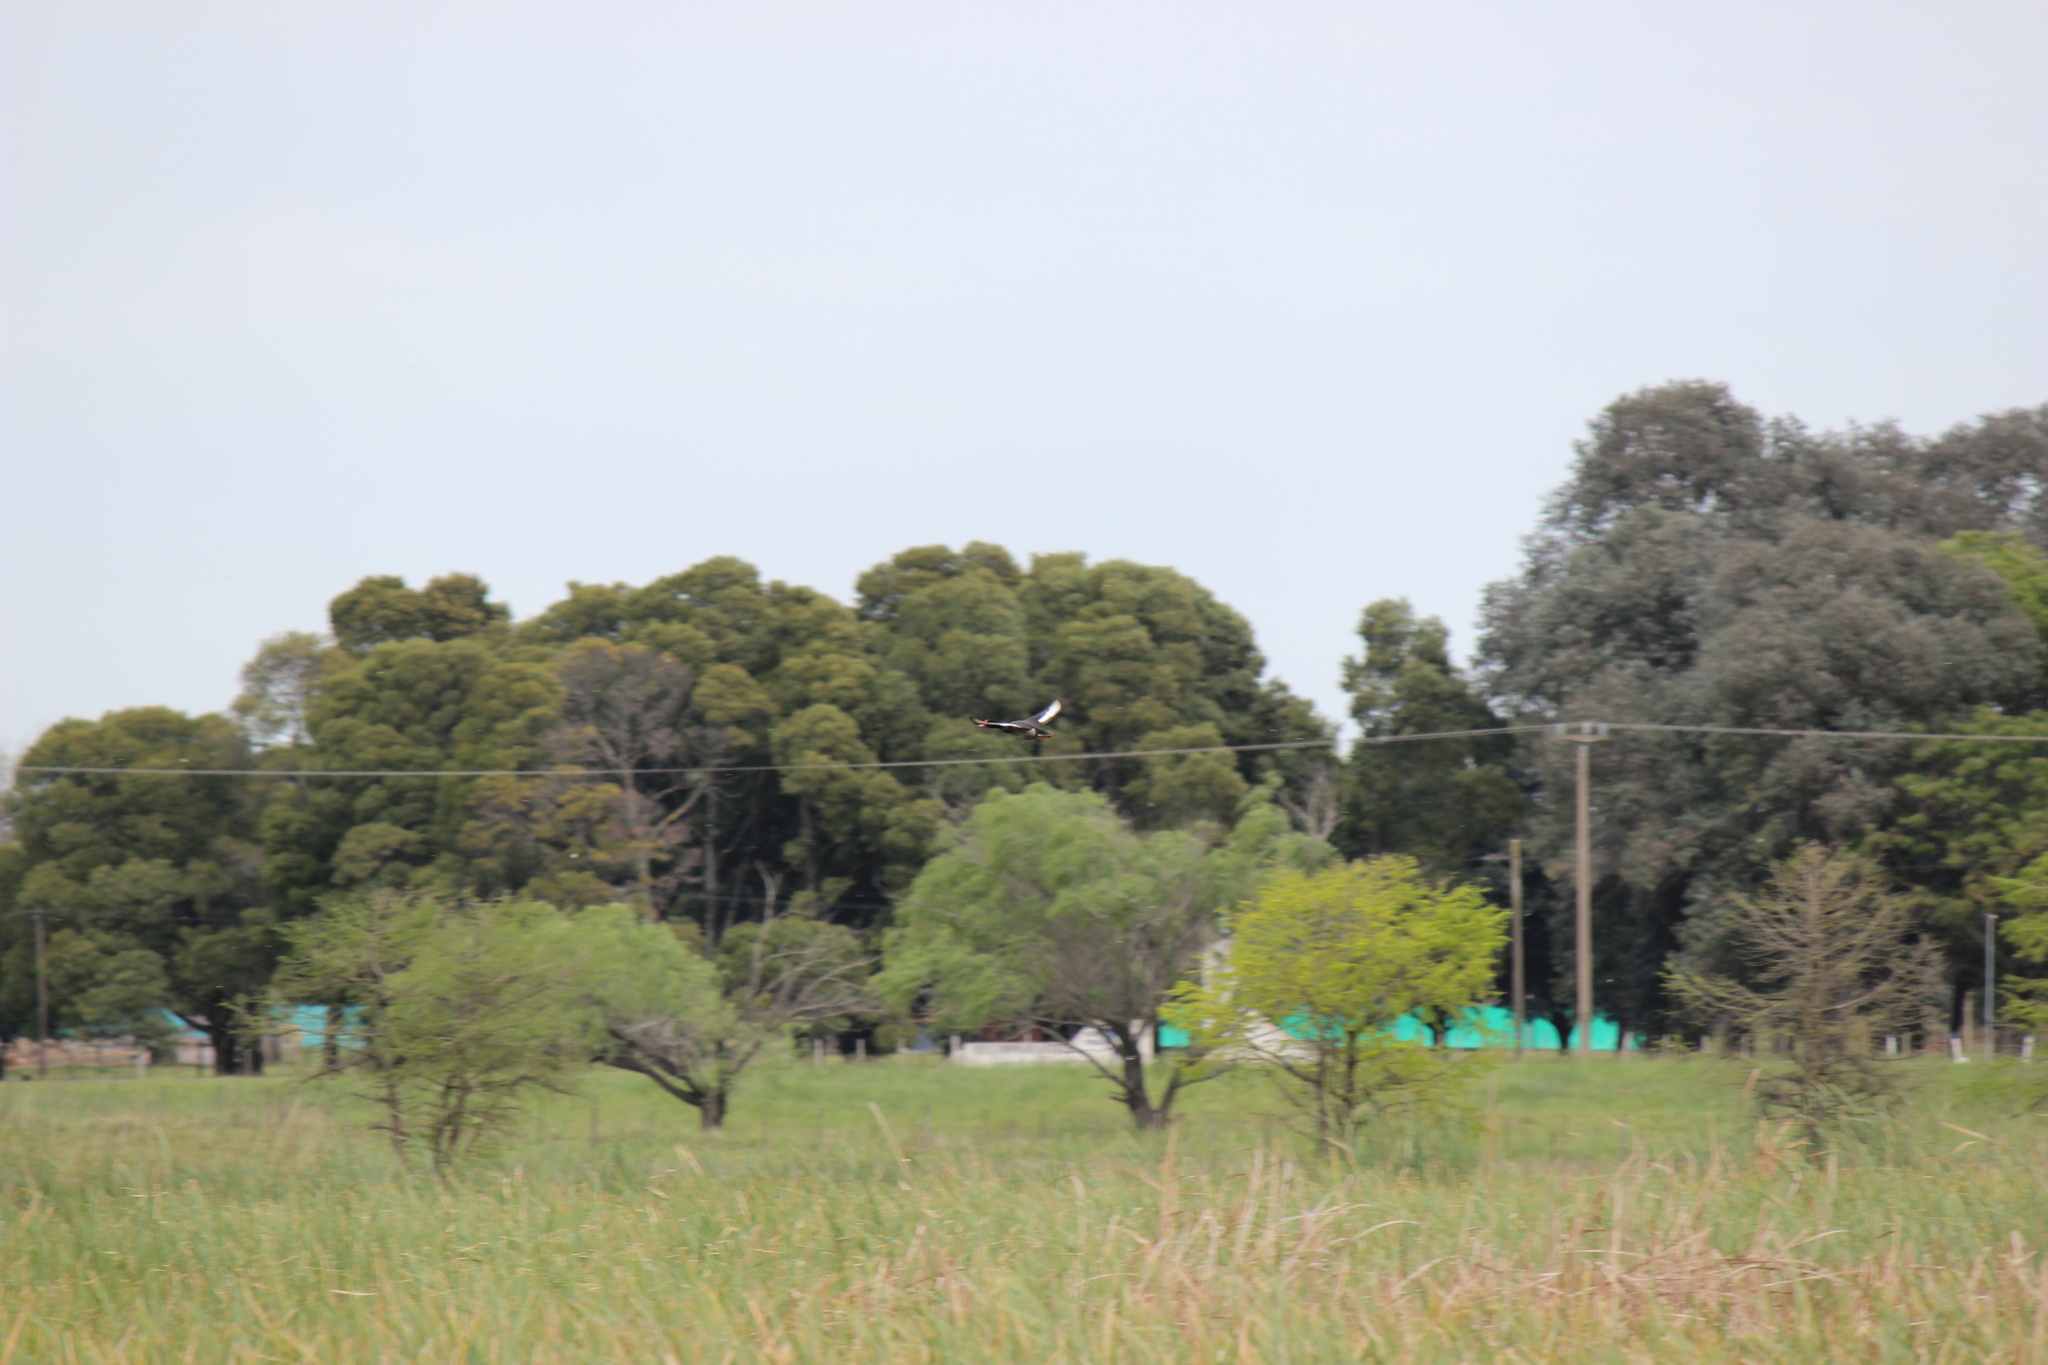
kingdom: Animalia
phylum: Chordata
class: Aves
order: Anseriformes
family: Anatidae
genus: Netta
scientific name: Netta peposaca
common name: Rosy-billed pochard
